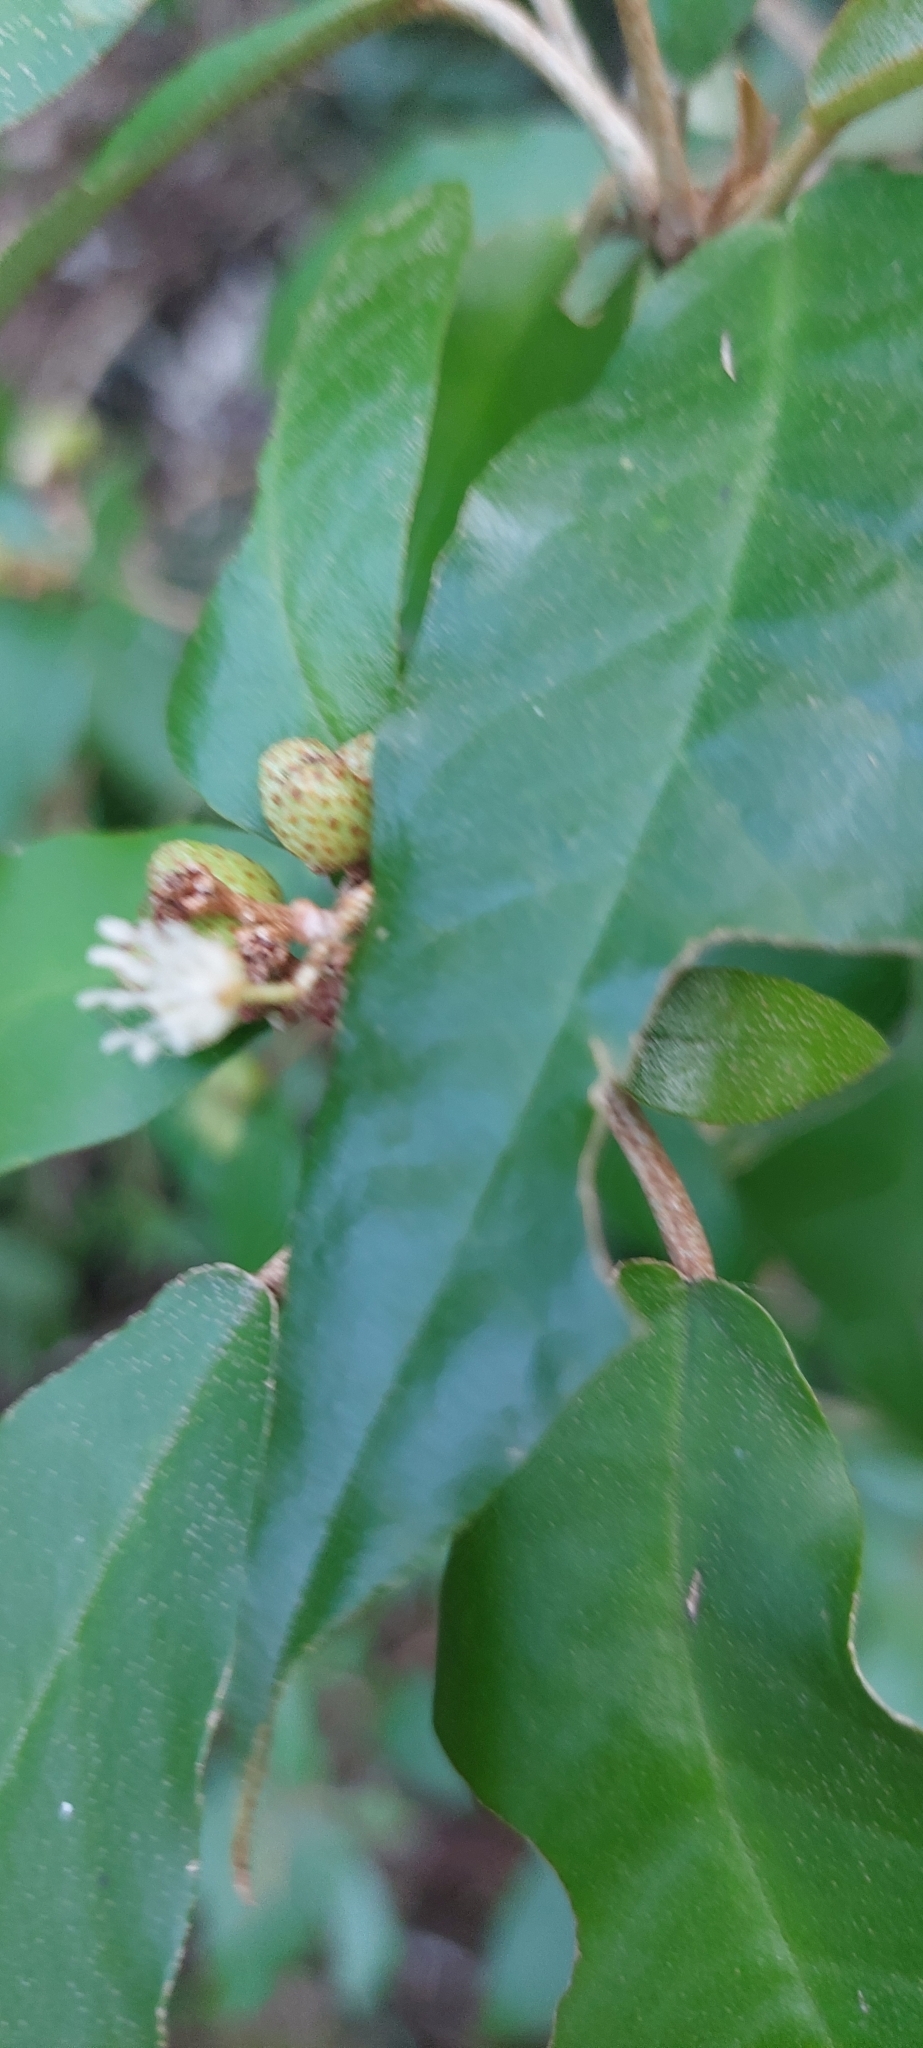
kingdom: Plantae
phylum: Tracheophyta
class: Magnoliopsida
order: Malpighiales
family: Euphorbiaceae
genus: Croton
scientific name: Croton cascarilloides
